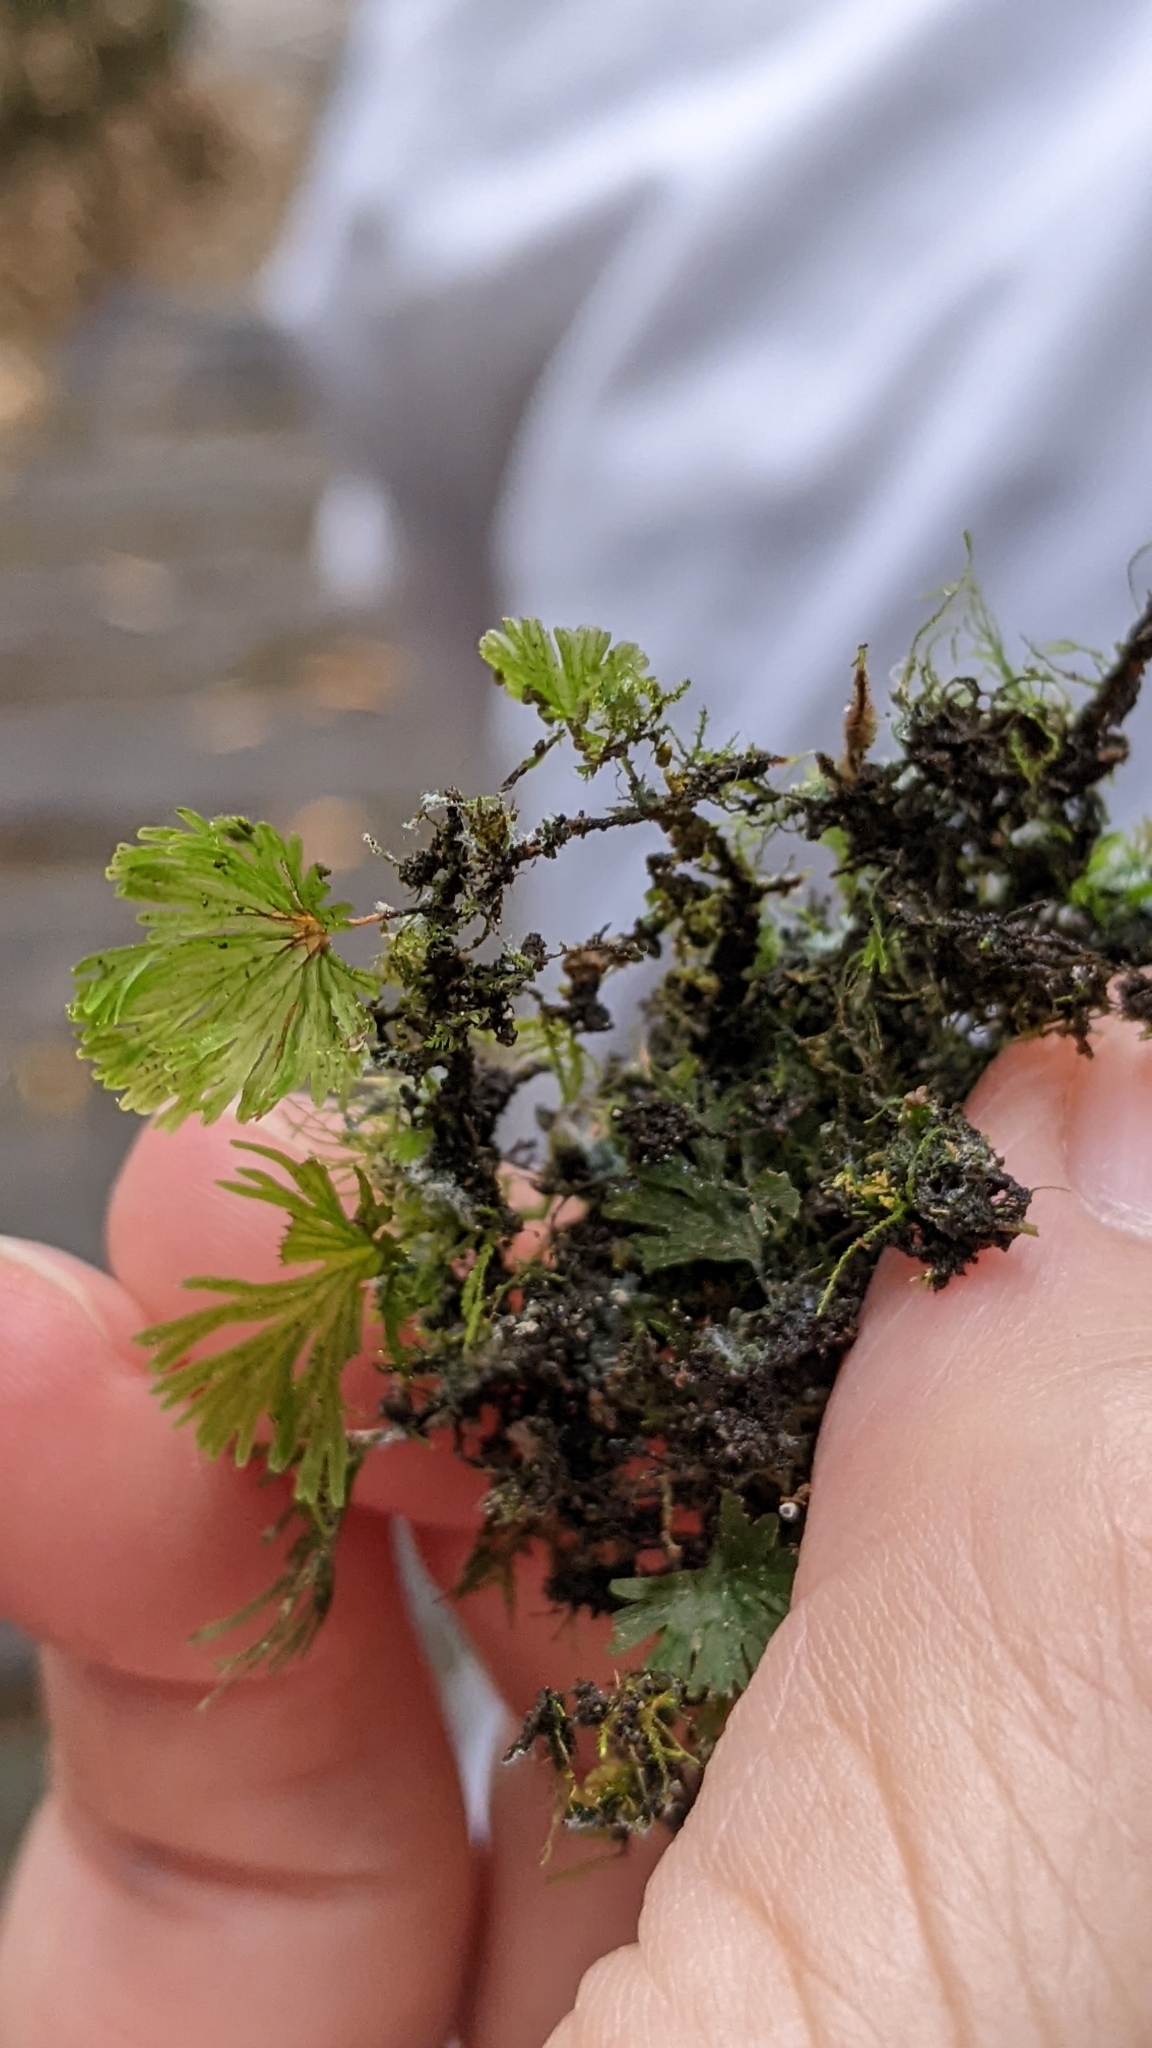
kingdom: Plantae
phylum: Tracheophyta
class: Polypodiopsida
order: Hymenophyllales
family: Hymenophyllaceae
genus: Crepidomanes
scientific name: Crepidomanes parvulum
